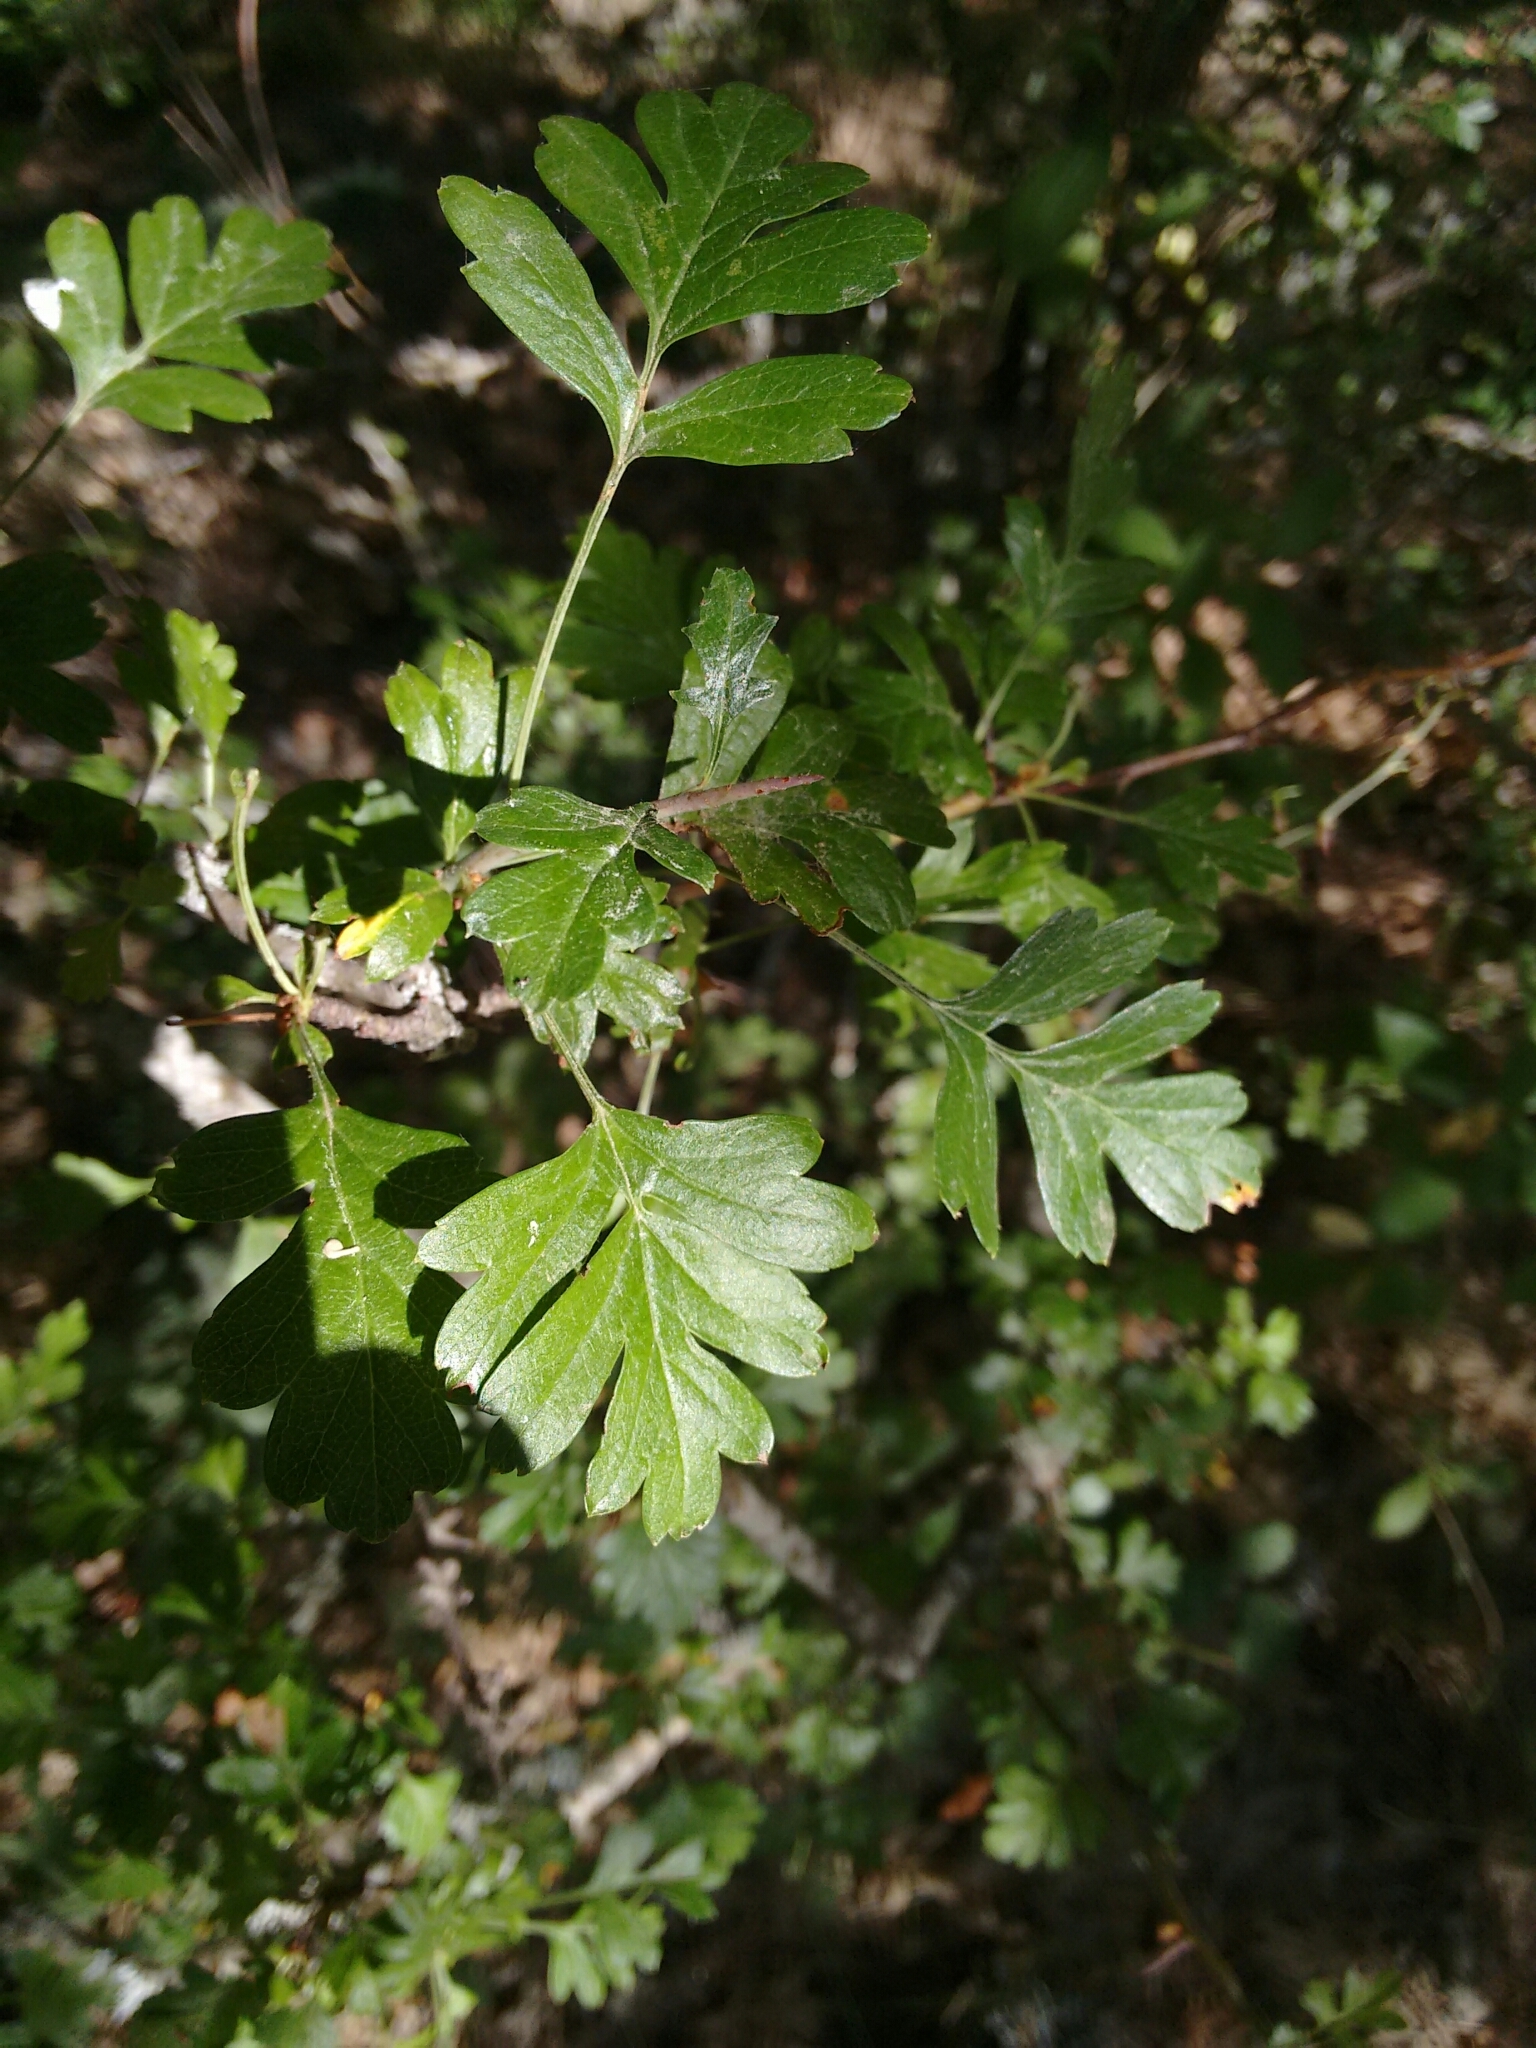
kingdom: Plantae
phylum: Tracheophyta
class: Magnoliopsida
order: Rosales
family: Rosaceae
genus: Crataegus
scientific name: Crataegus monogyna
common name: Hawthorn
